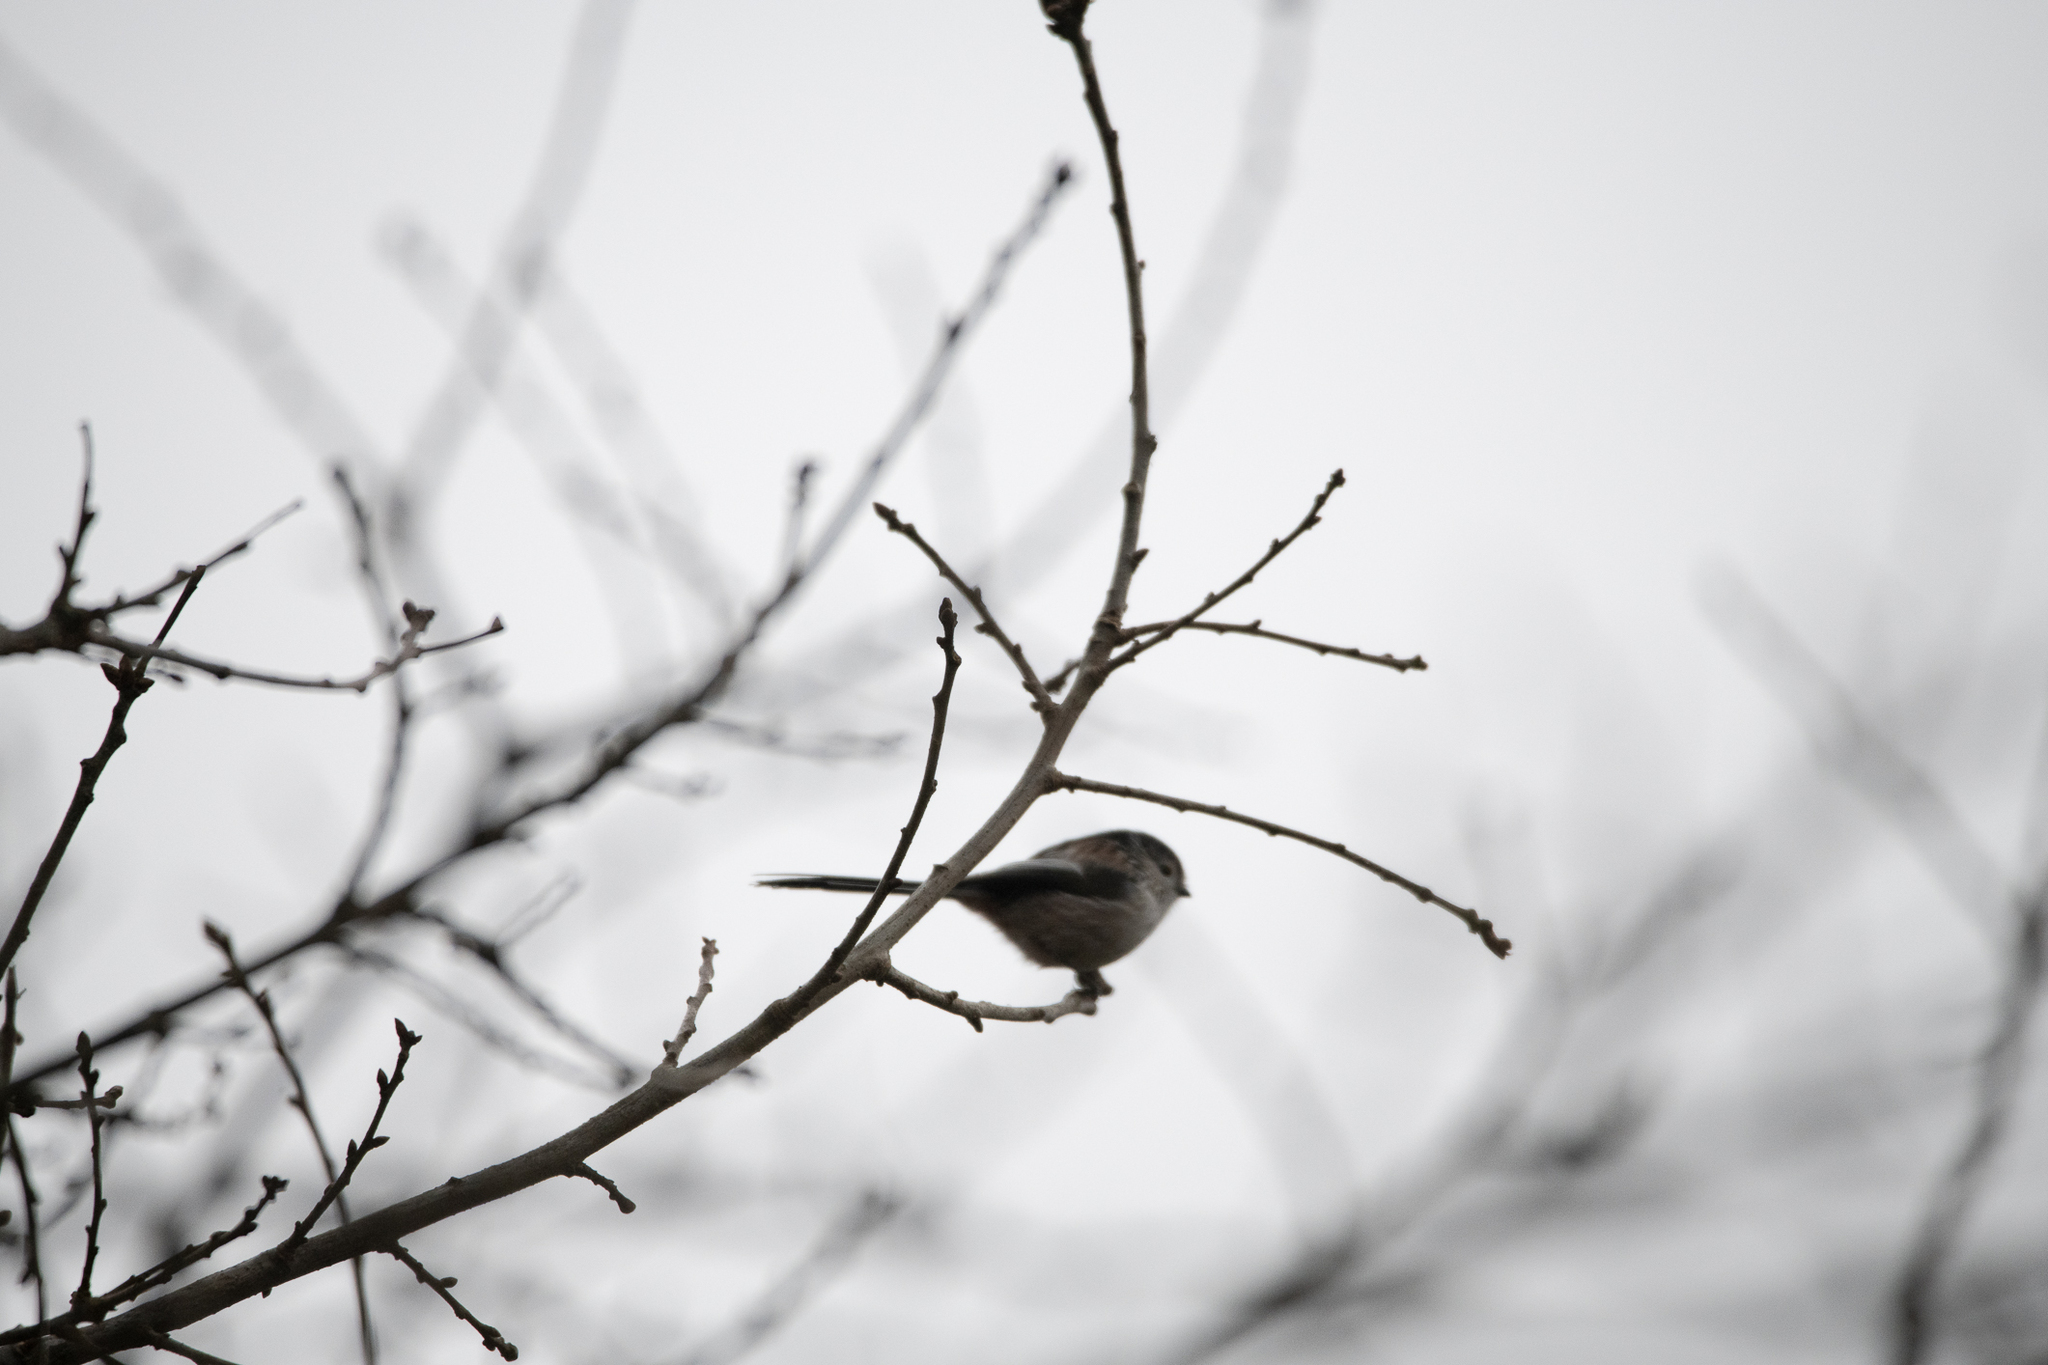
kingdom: Animalia
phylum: Chordata
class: Aves
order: Passeriformes
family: Aegithalidae
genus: Aegithalos
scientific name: Aegithalos caudatus
